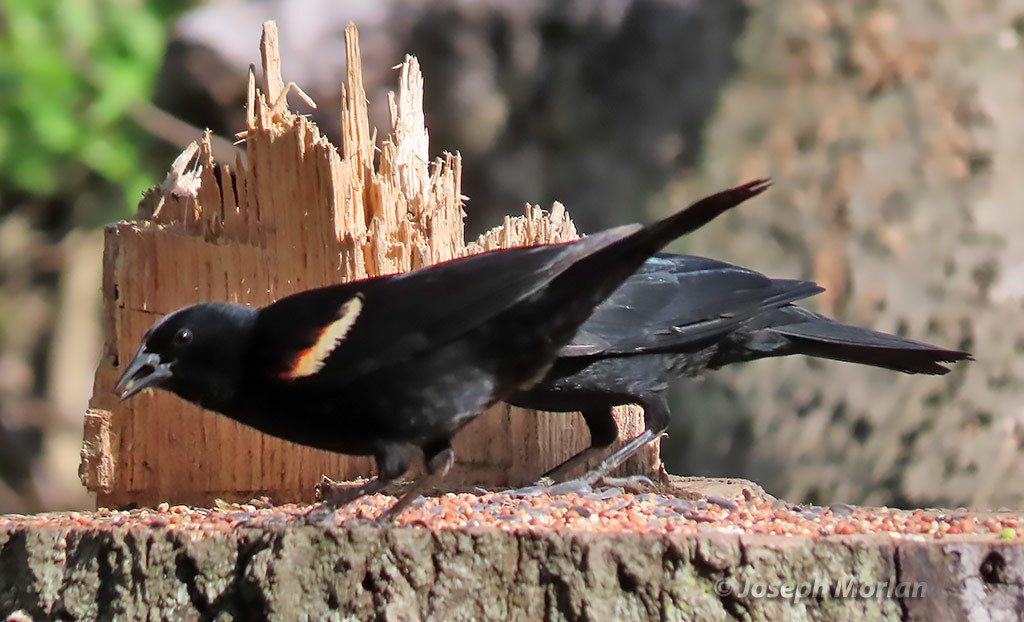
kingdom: Animalia
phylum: Chordata
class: Aves
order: Passeriformes
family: Icteridae
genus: Agelaius
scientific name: Agelaius phoeniceus
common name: Red-winged blackbird
